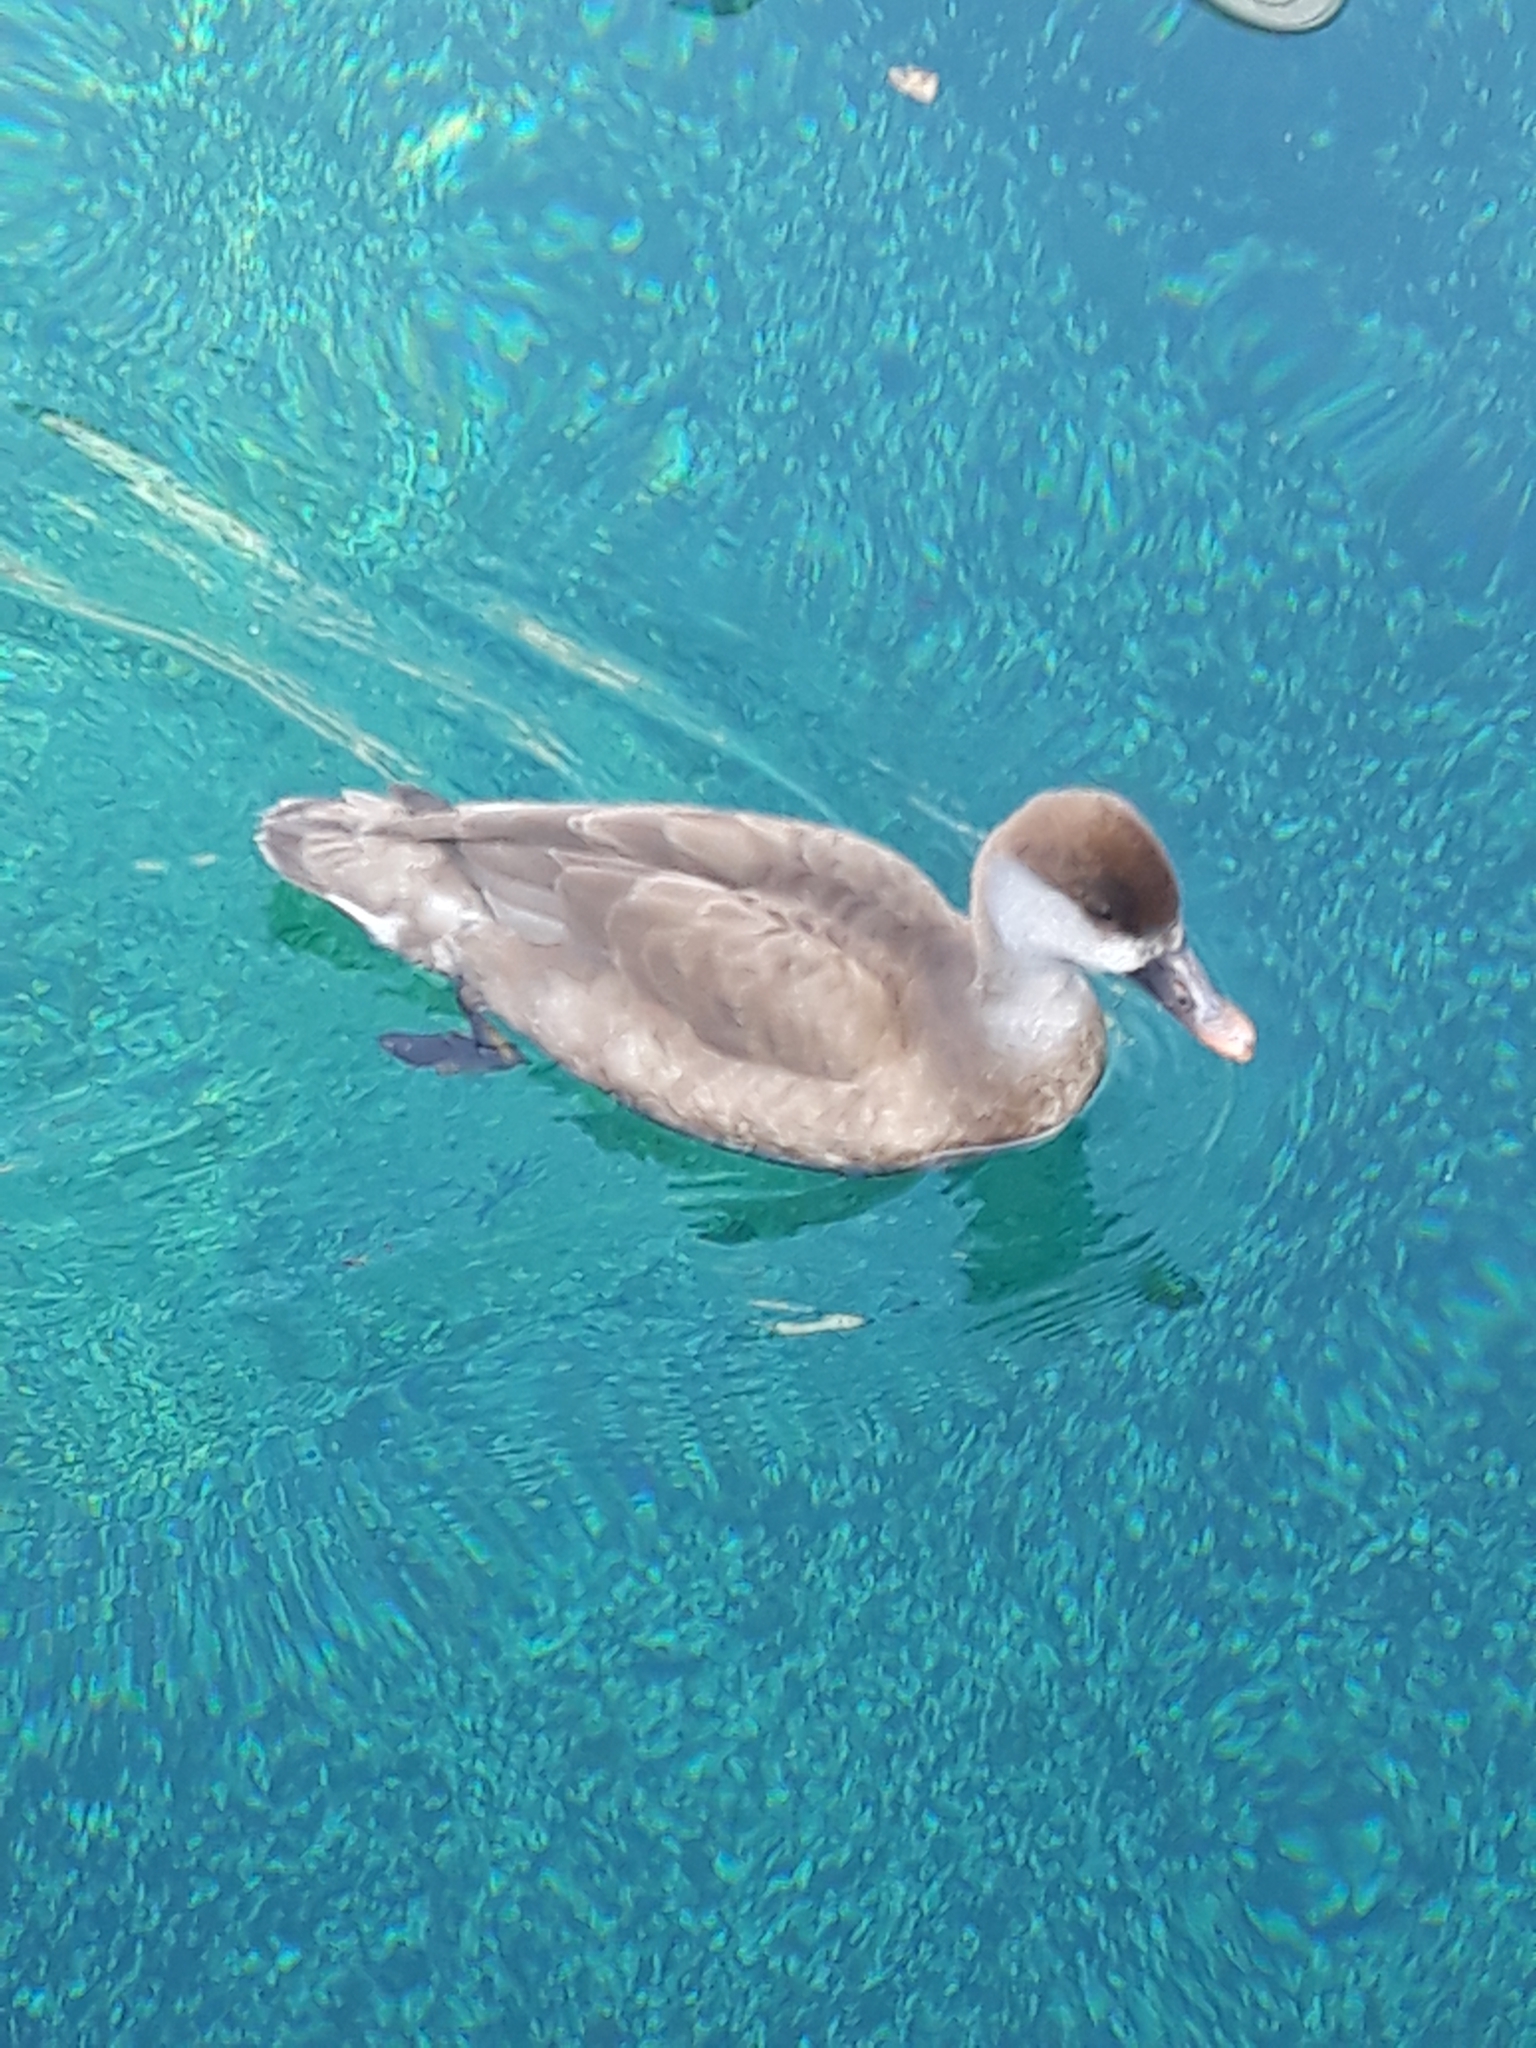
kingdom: Animalia
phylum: Chordata
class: Aves
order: Anseriformes
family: Anatidae
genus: Netta
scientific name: Netta rufina
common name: Red-crested pochard
